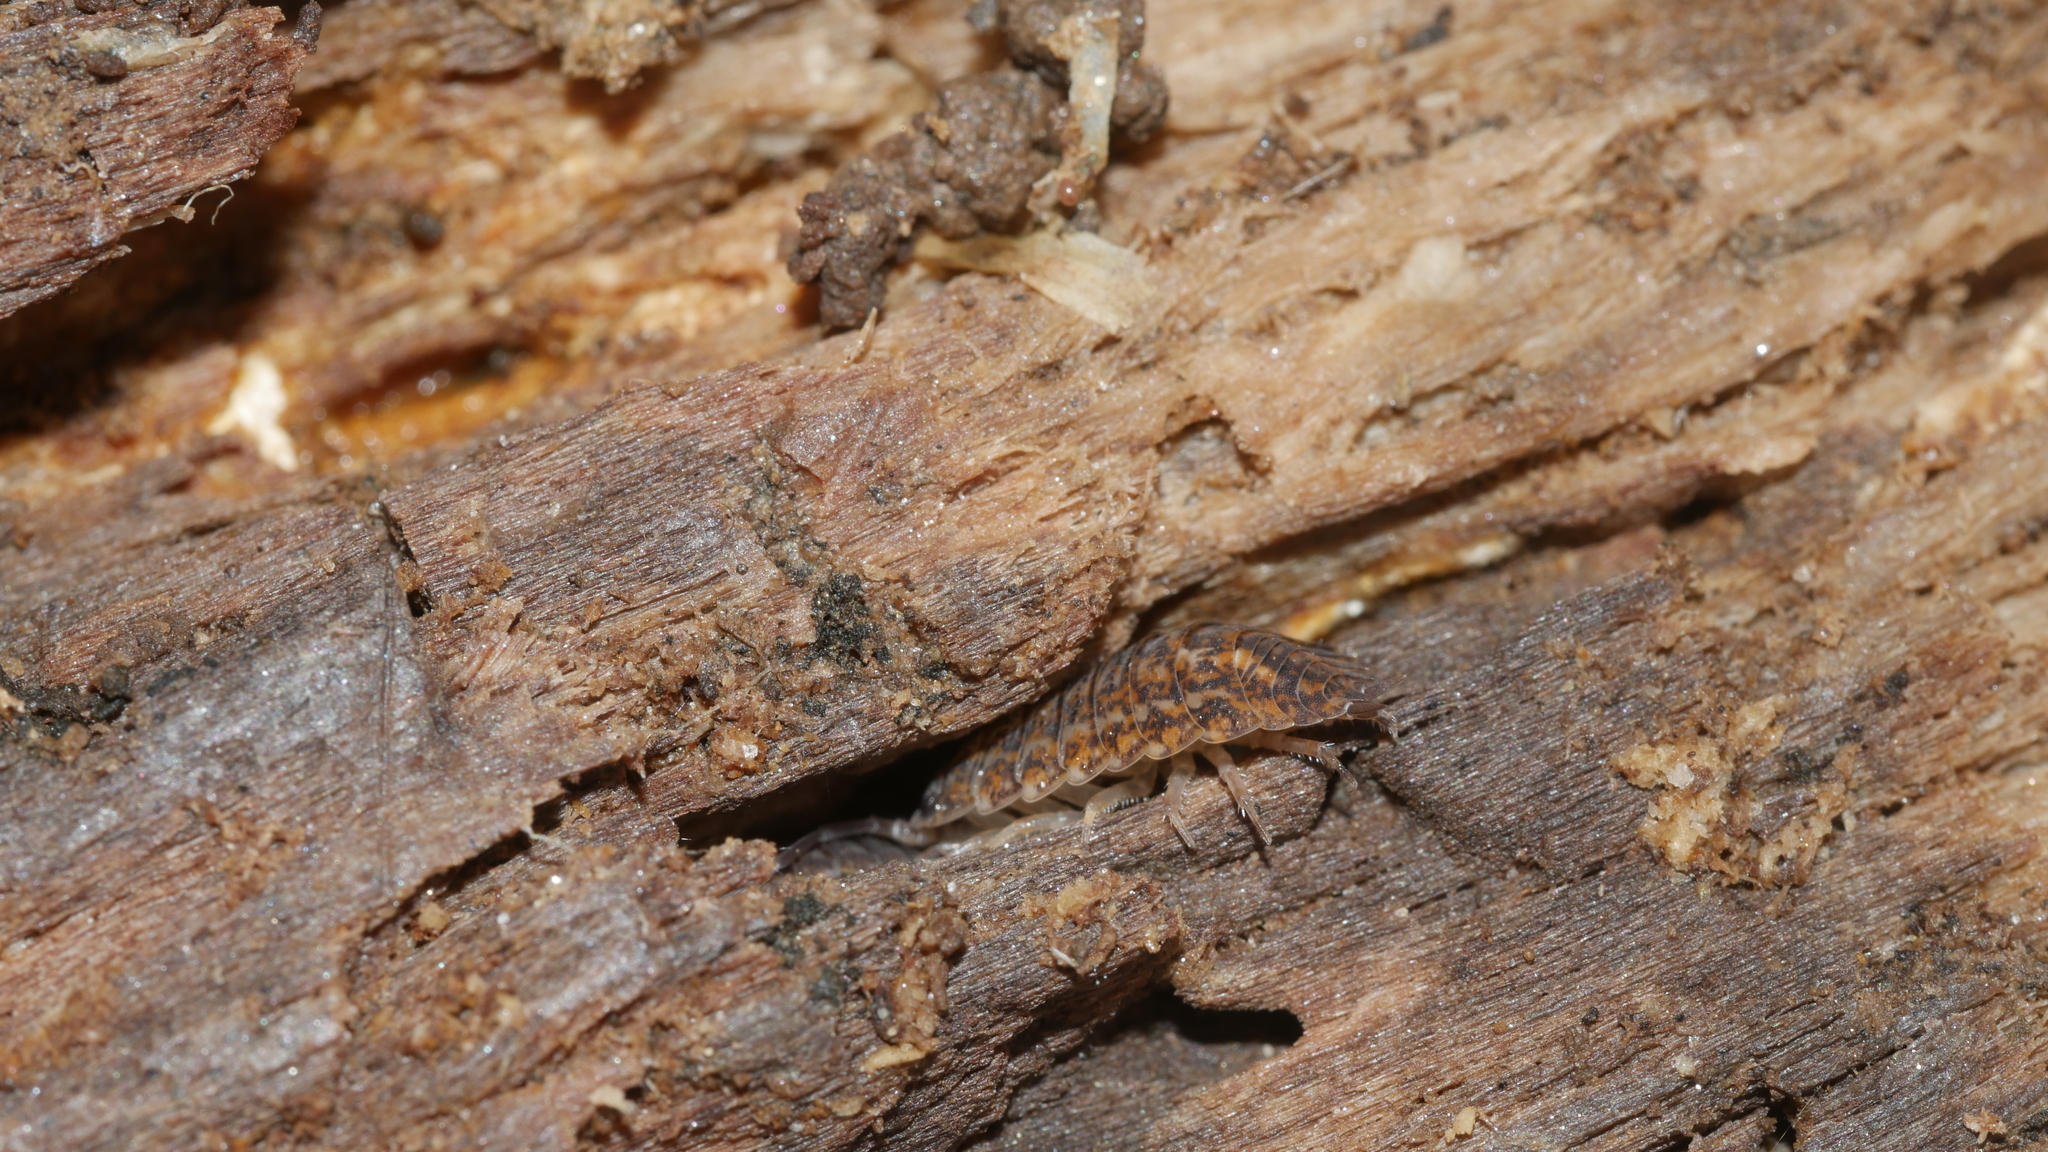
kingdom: Animalia
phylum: Arthropoda
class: Malacostraca
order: Isopoda
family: Trachelipodidae
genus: Trachelipus
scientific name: Trachelipus rathkii
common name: Isopod
